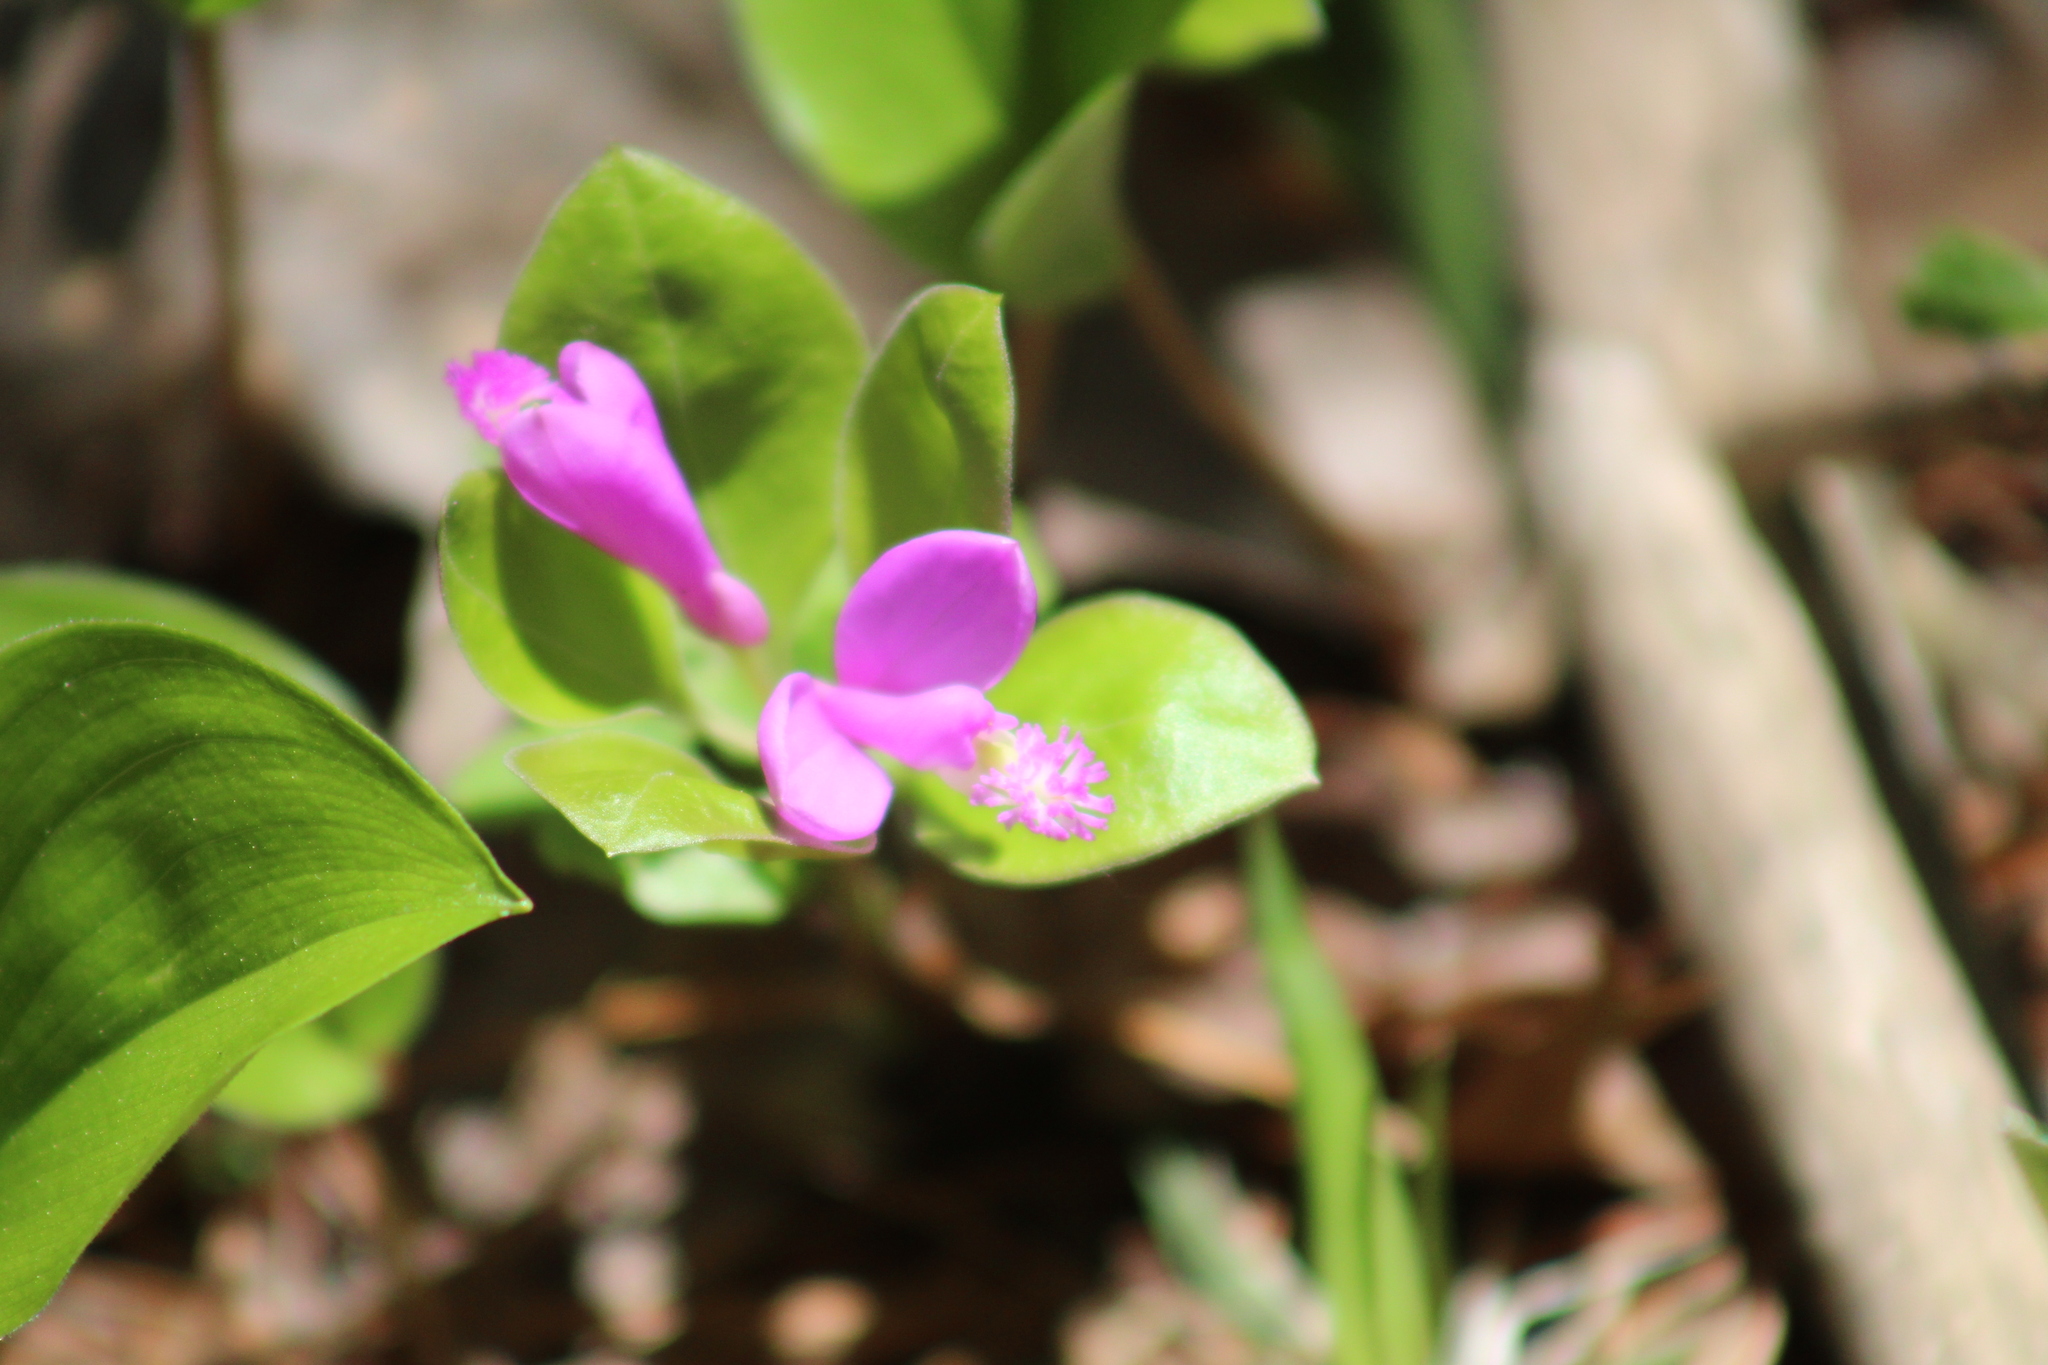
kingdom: Plantae
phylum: Tracheophyta
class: Magnoliopsida
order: Fabales
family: Polygalaceae
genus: Polygaloides
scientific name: Polygaloides paucifolia
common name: Bird-on-the-wing
